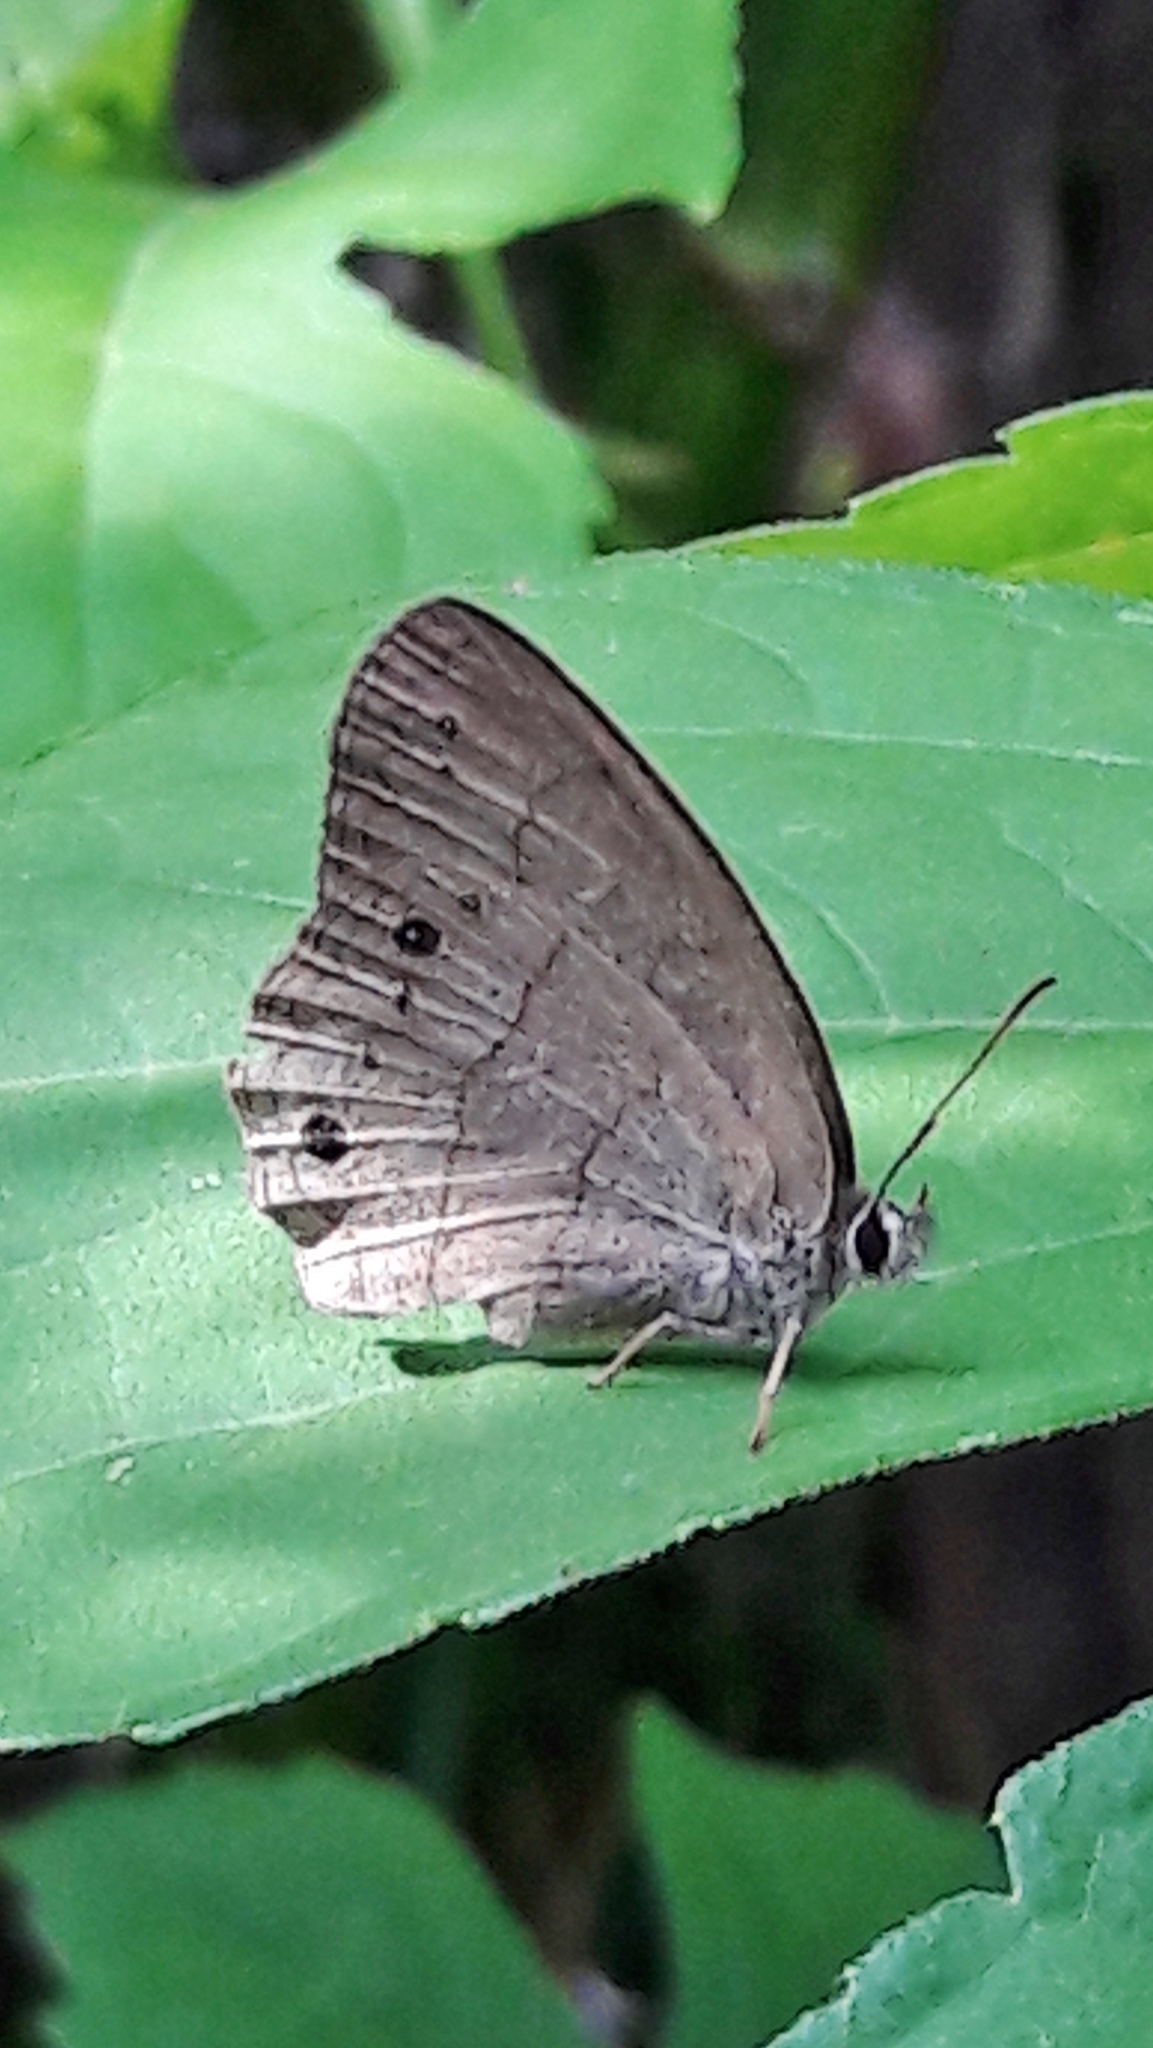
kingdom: Animalia
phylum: Arthropoda
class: Insecta
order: Lepidoptera
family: Nymphalidae
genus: Euptychia
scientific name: Euptychia Cissia eous
